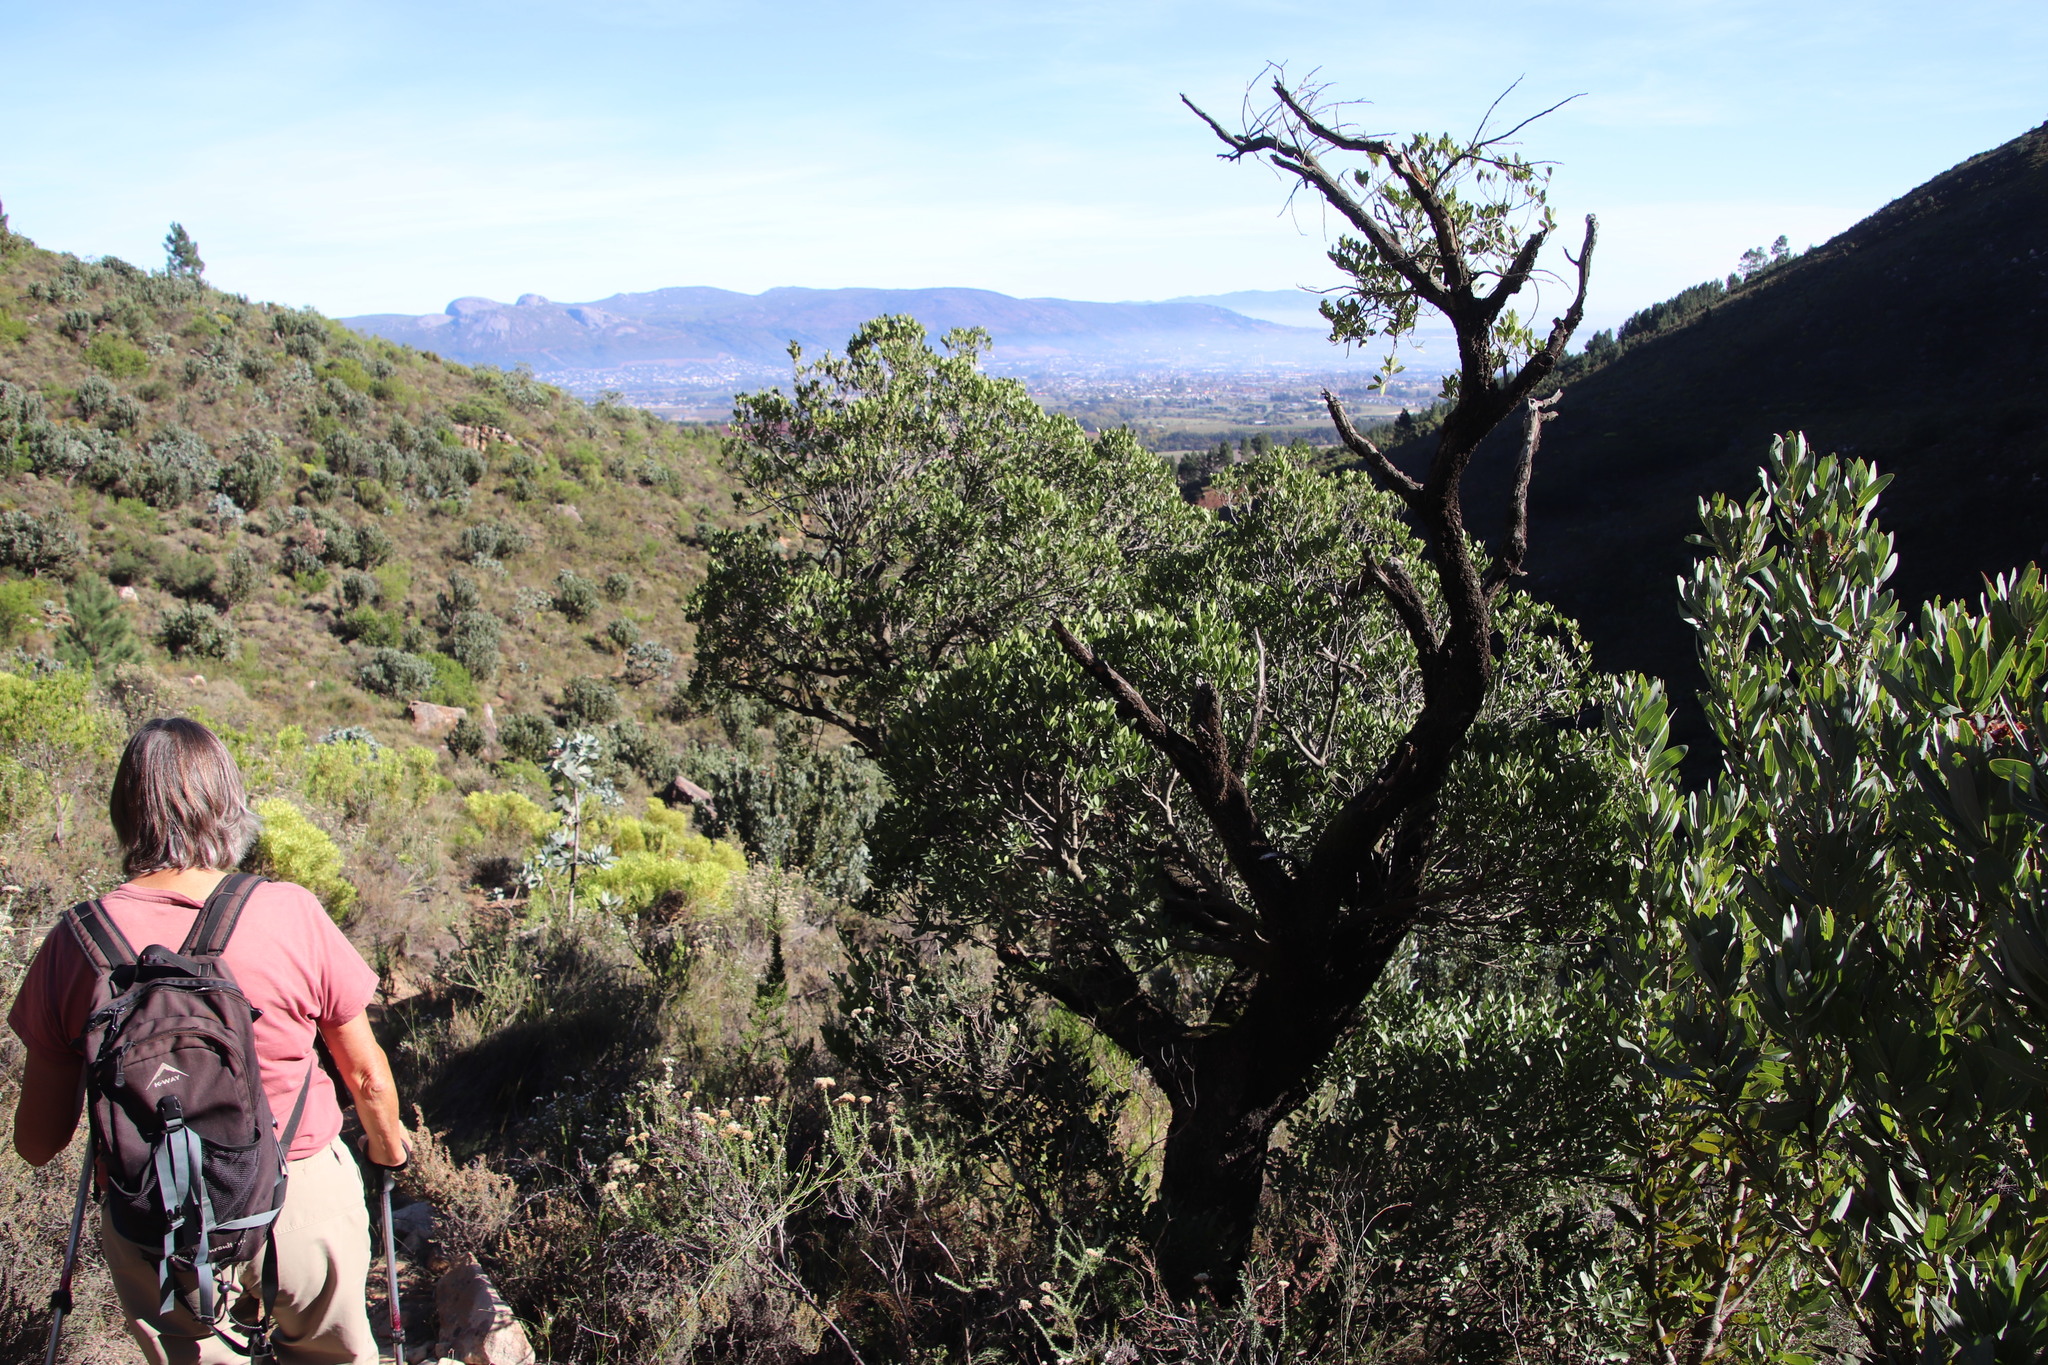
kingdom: Plantae
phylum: Tracheophyta
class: Magnoliopsida
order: Celastrales
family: Celastraceae
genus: Gymnosporia
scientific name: Gymnosporia laurina
